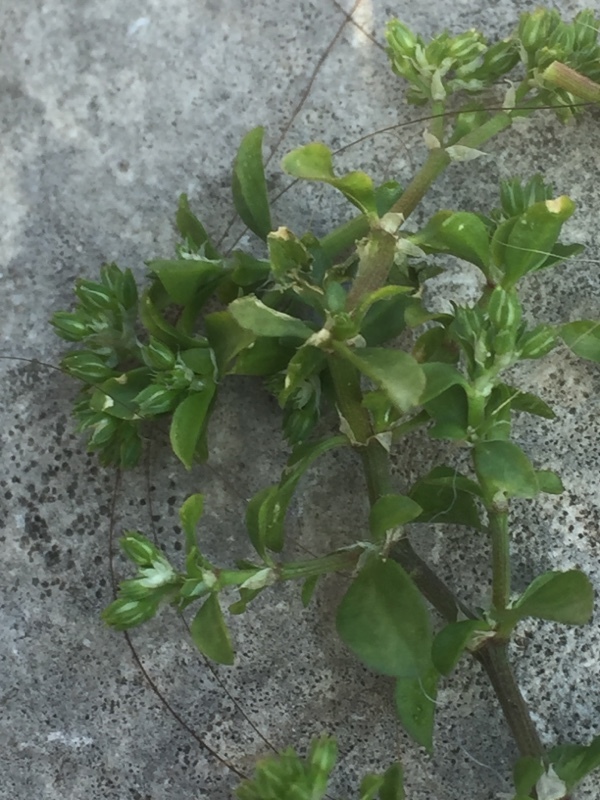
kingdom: Plantae
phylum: Tracheophyta
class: Magnoliopsida
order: Caryophyllales
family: Caryophyllaceae
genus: Polycarpon
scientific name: Polycarpon tetraphyllum
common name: Four-leaved all-seed
